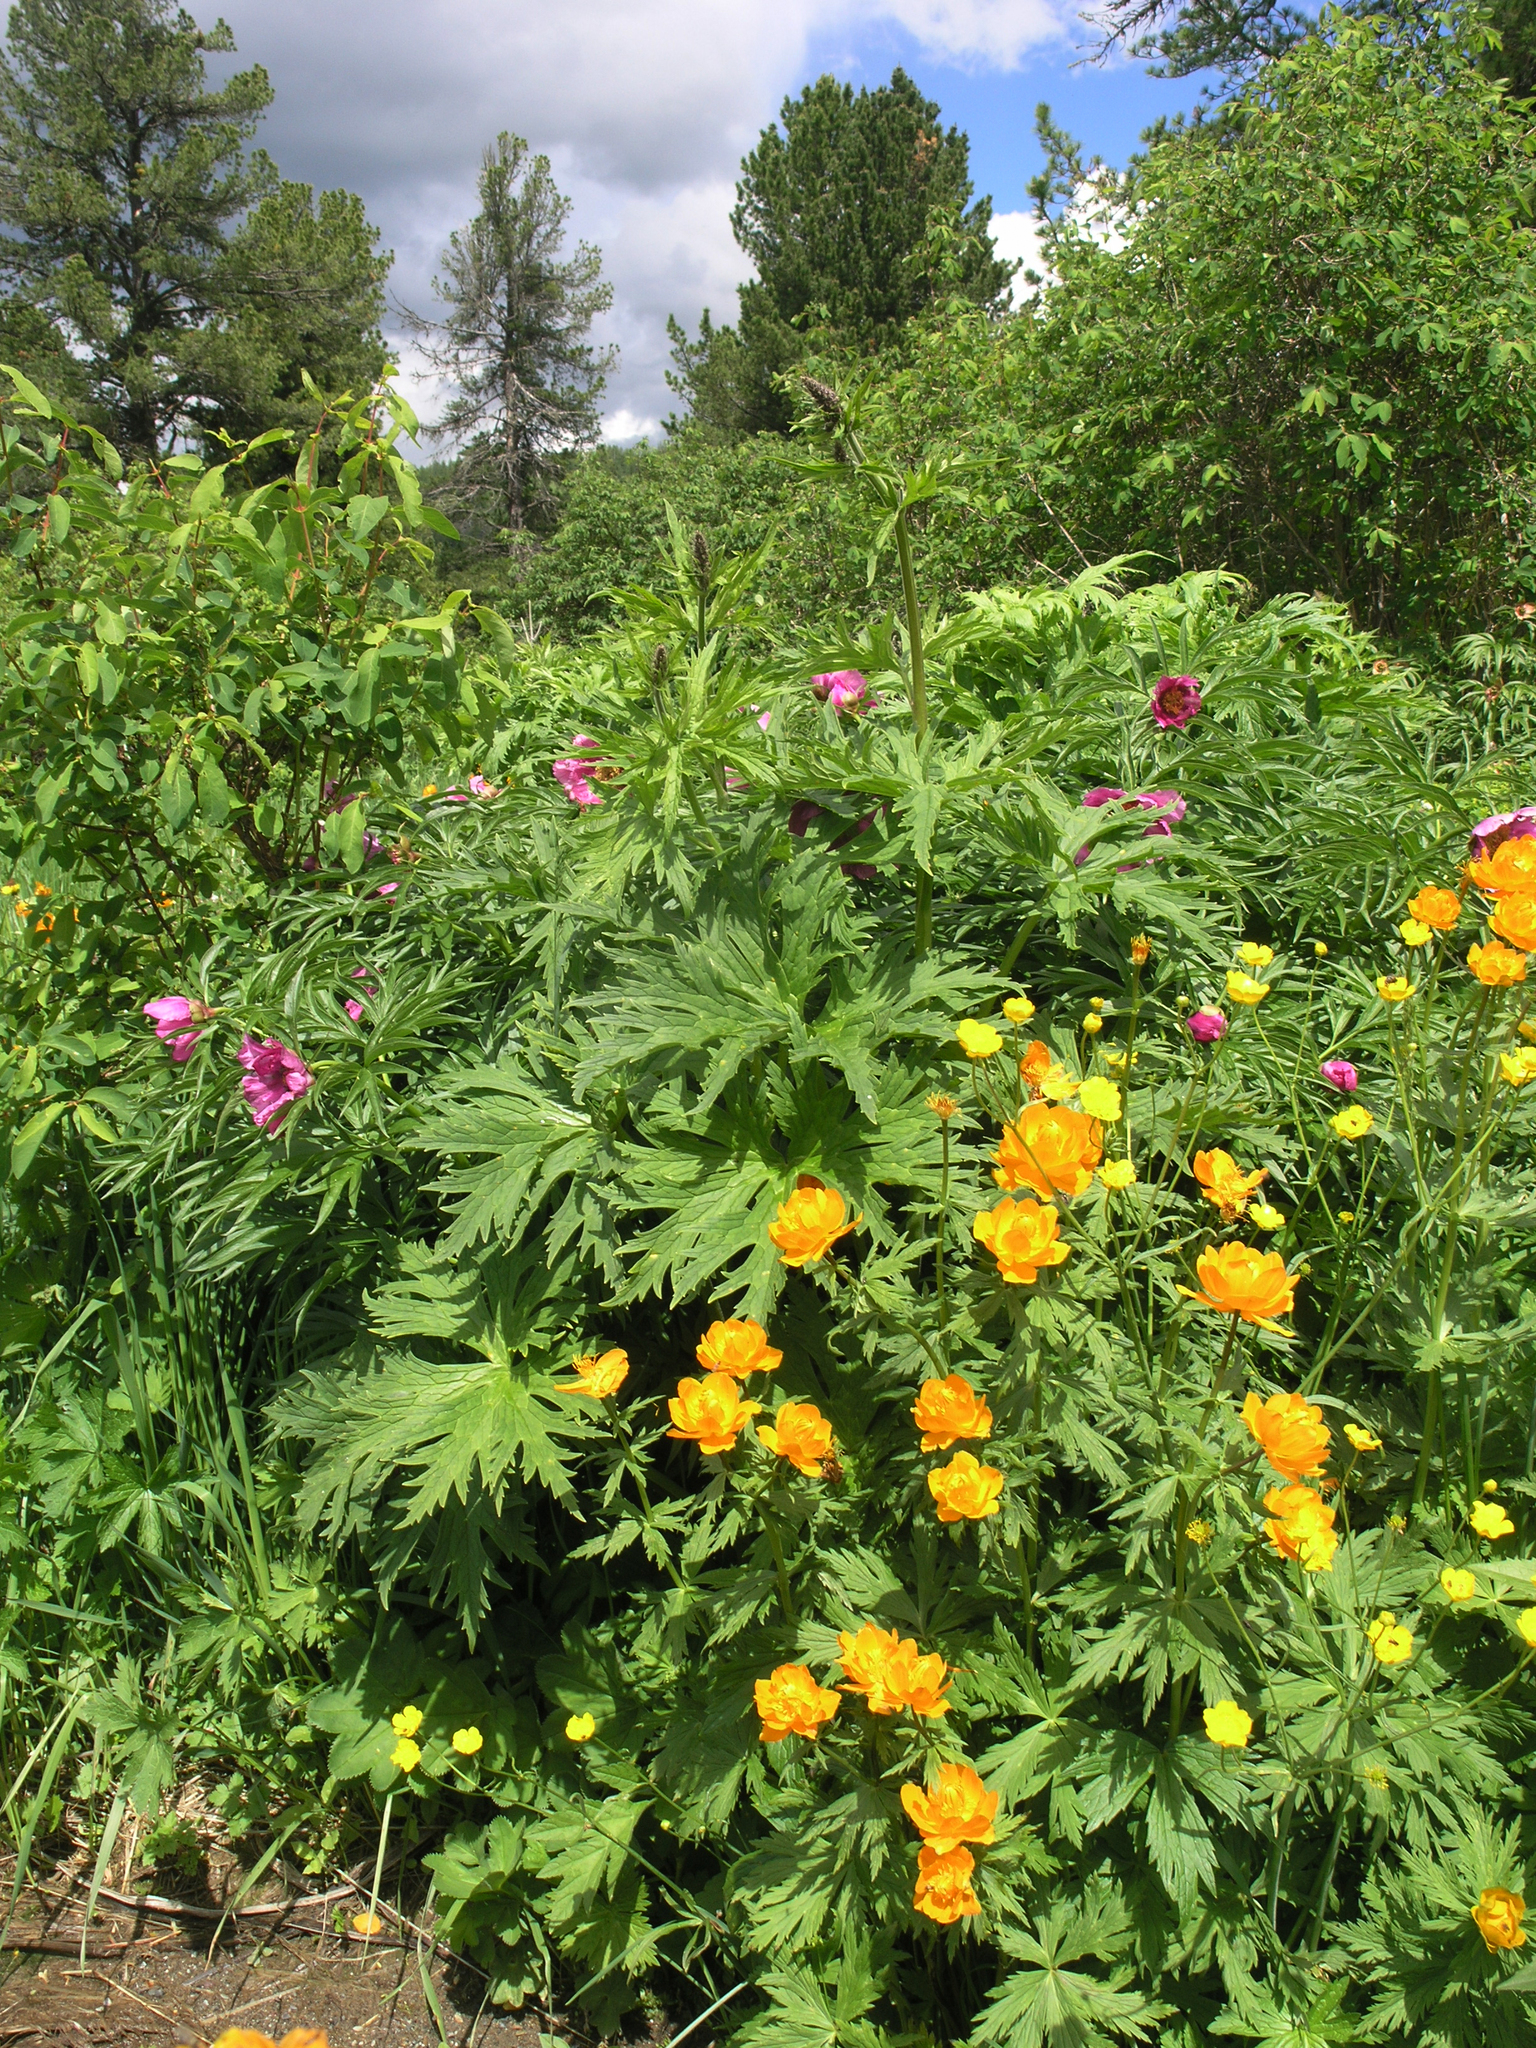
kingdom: Plantae
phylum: Tracheophyta
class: Pinopsida
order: Pinales
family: Pinaceae
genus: Pinus
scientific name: Pinus sibirica
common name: Siberian pine
